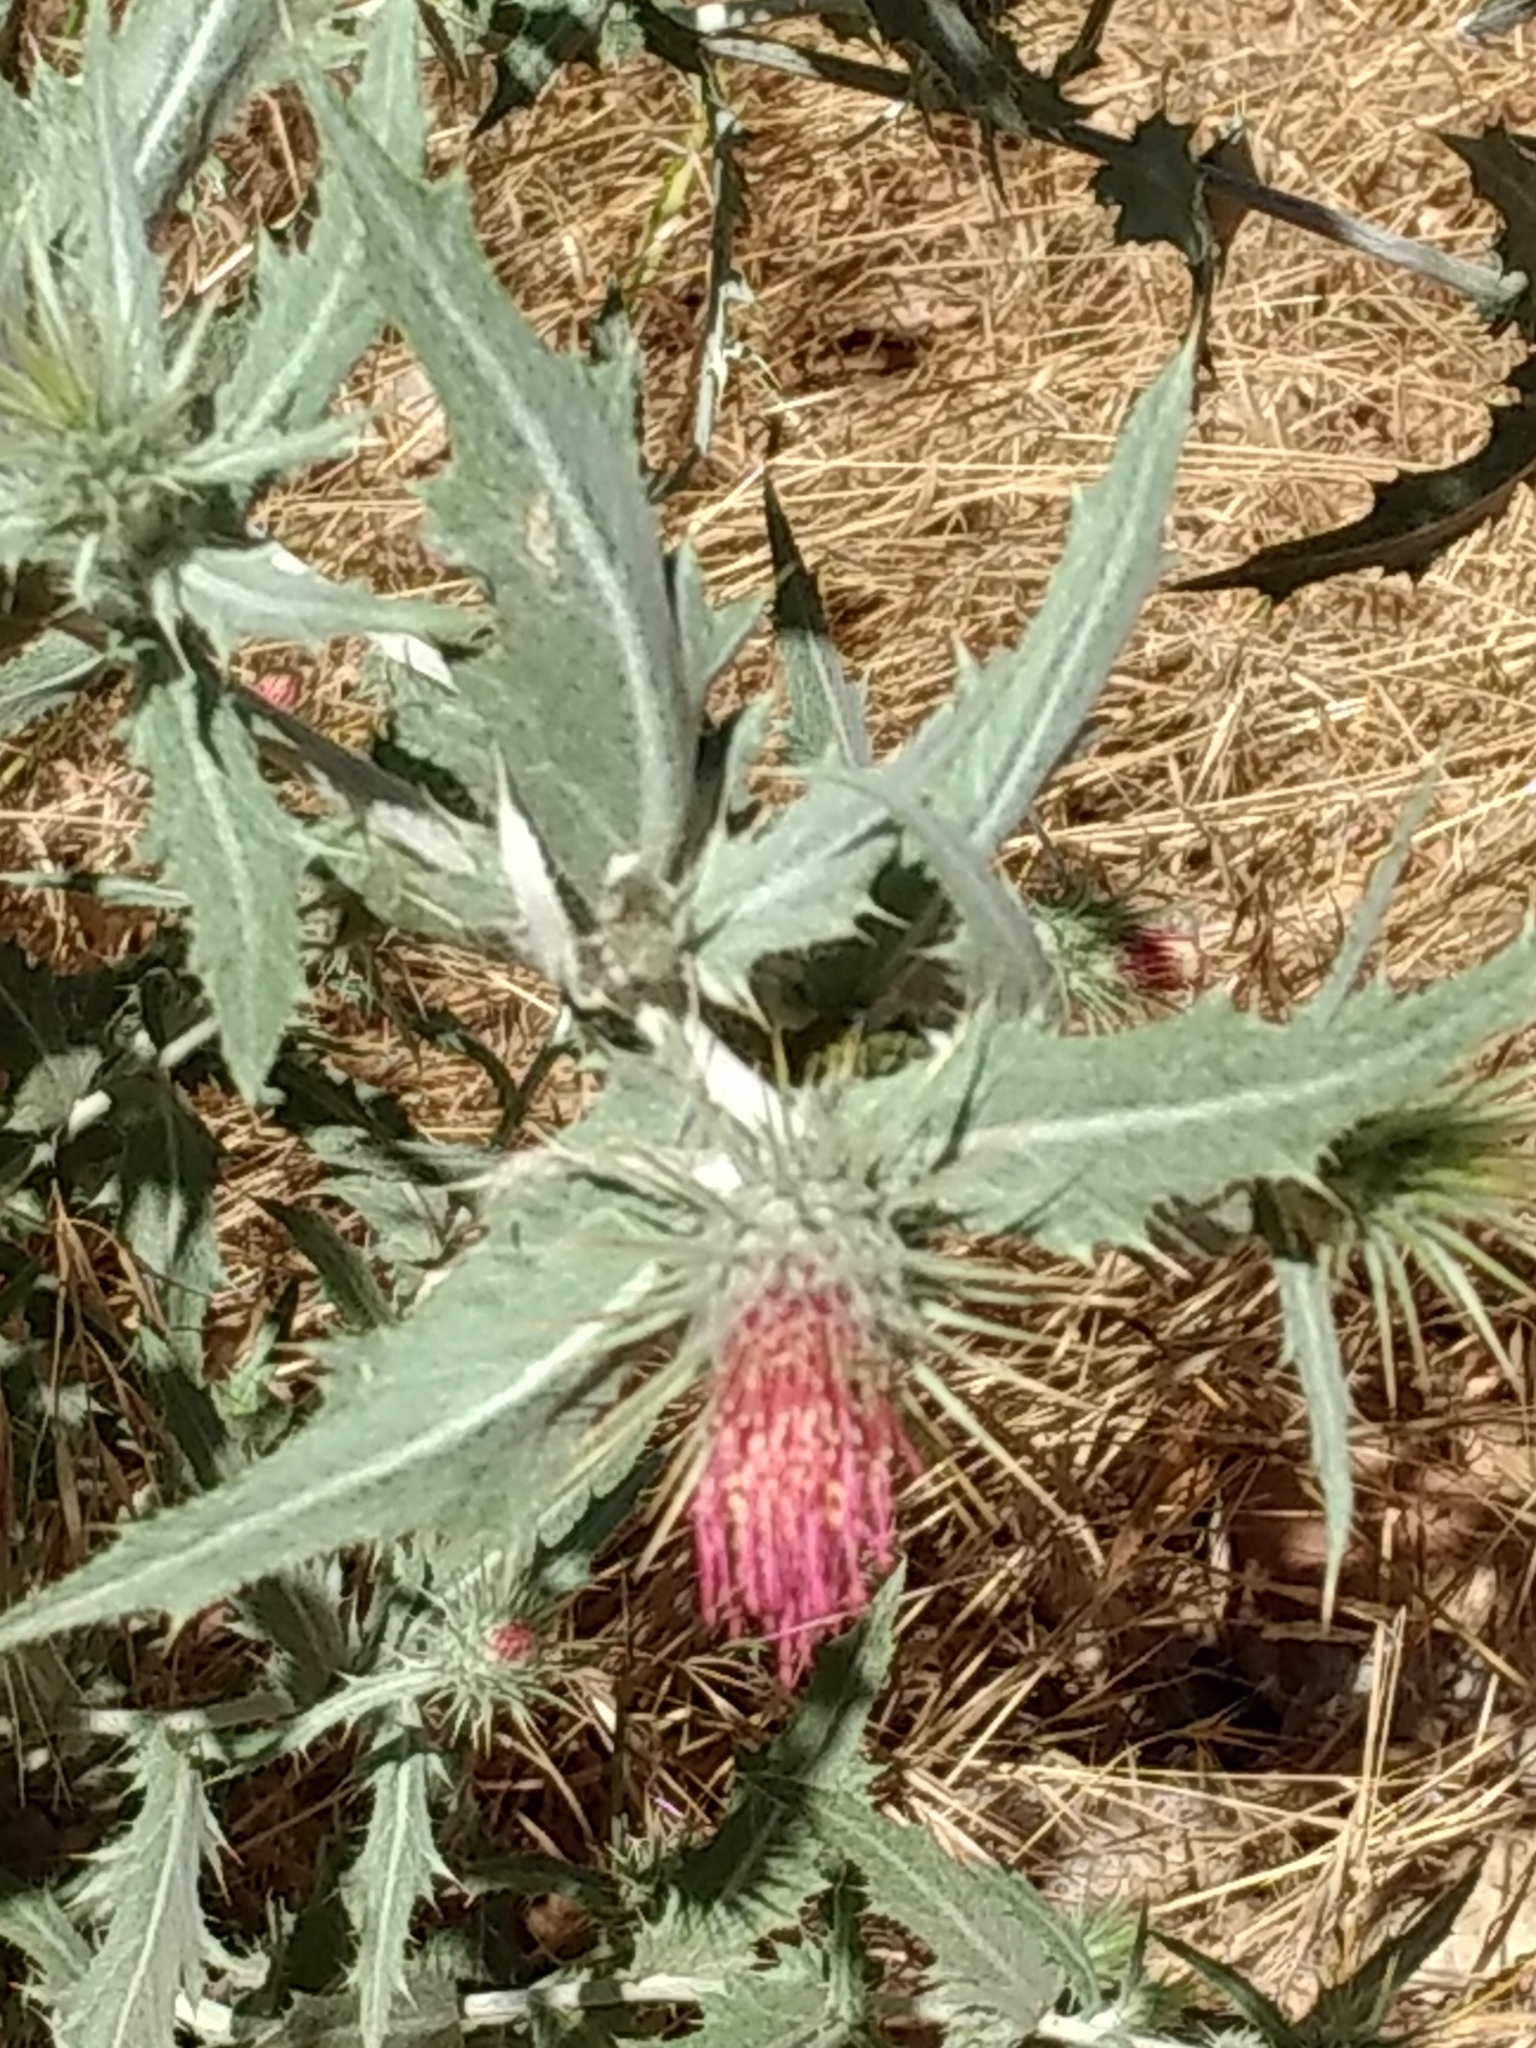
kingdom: Plantae
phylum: Tracheophyta
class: Magnoliopsida
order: Asterales
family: Asteraceae
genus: Cirsium
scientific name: Cirsium arizonicum
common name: Arizona thistle
